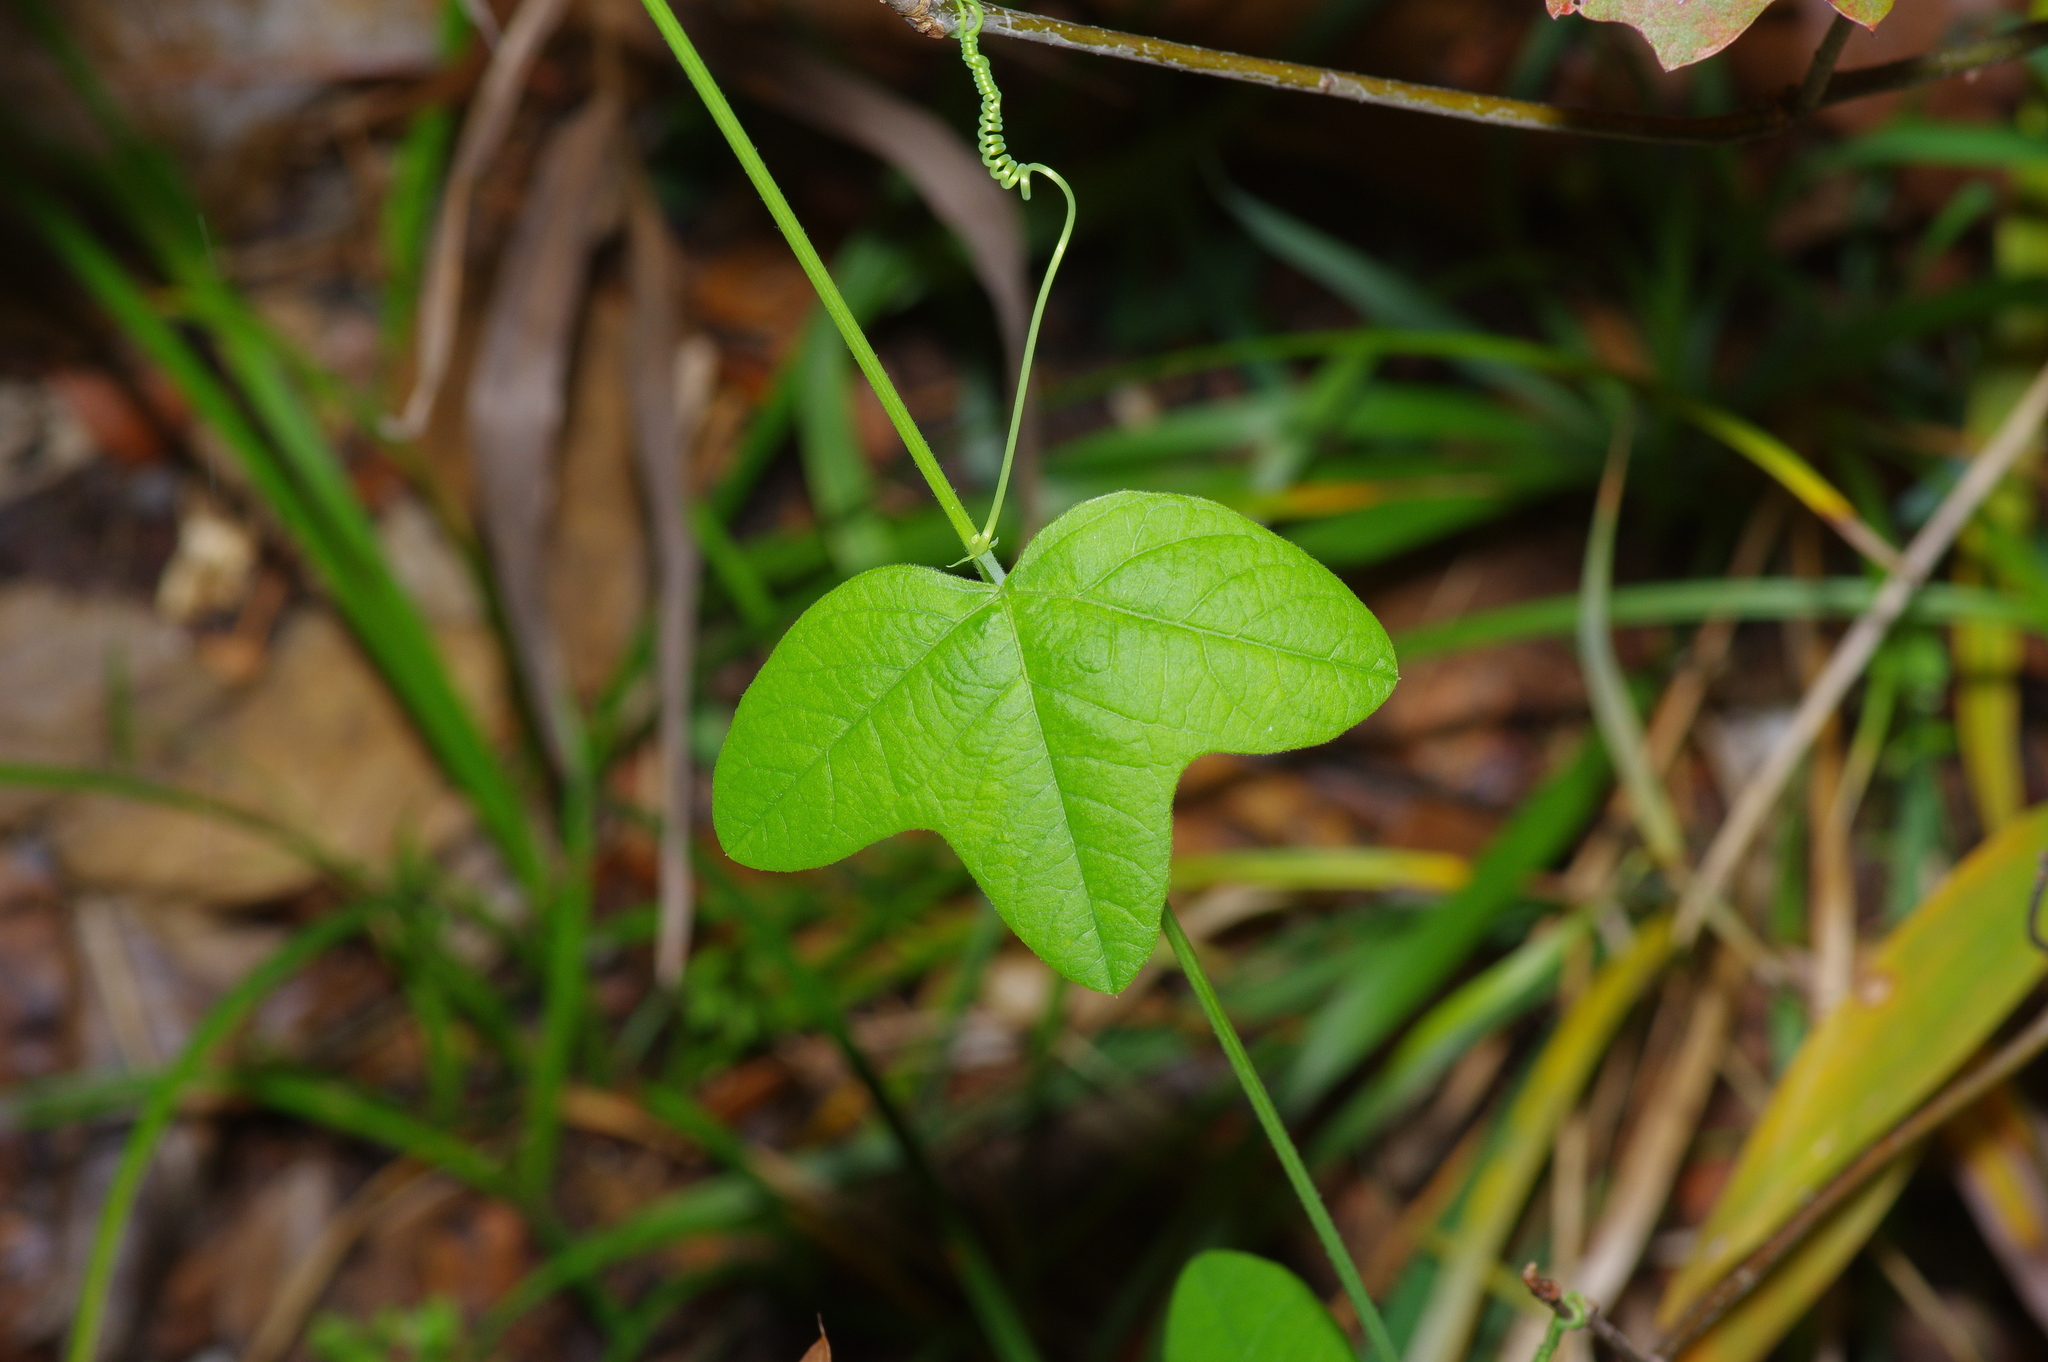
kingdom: Plantae
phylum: Tracheophyta
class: Magnoliopsida
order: Malpighiales
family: Passifloraceae
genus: Passiflora
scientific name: Passiflora lutea
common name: Yellow passionflower
